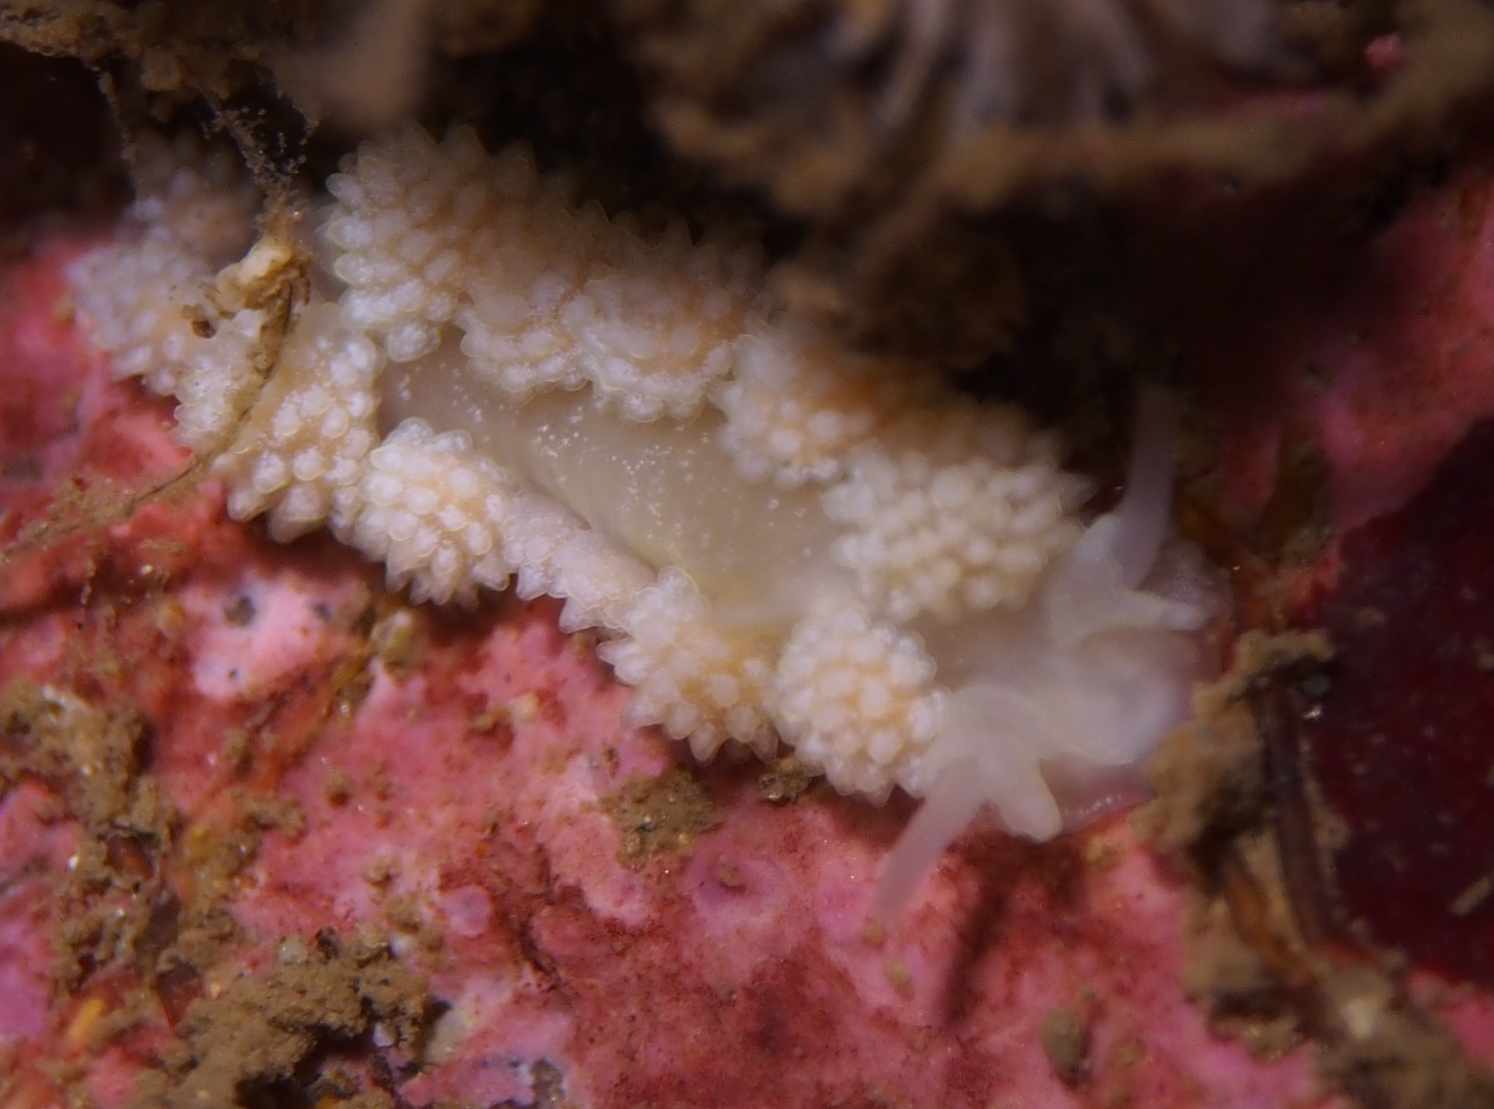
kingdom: Animalia
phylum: Mollusca
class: Gastropoda
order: Nudibranchia
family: Dotidae
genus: Doto
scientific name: Doto fragilis
